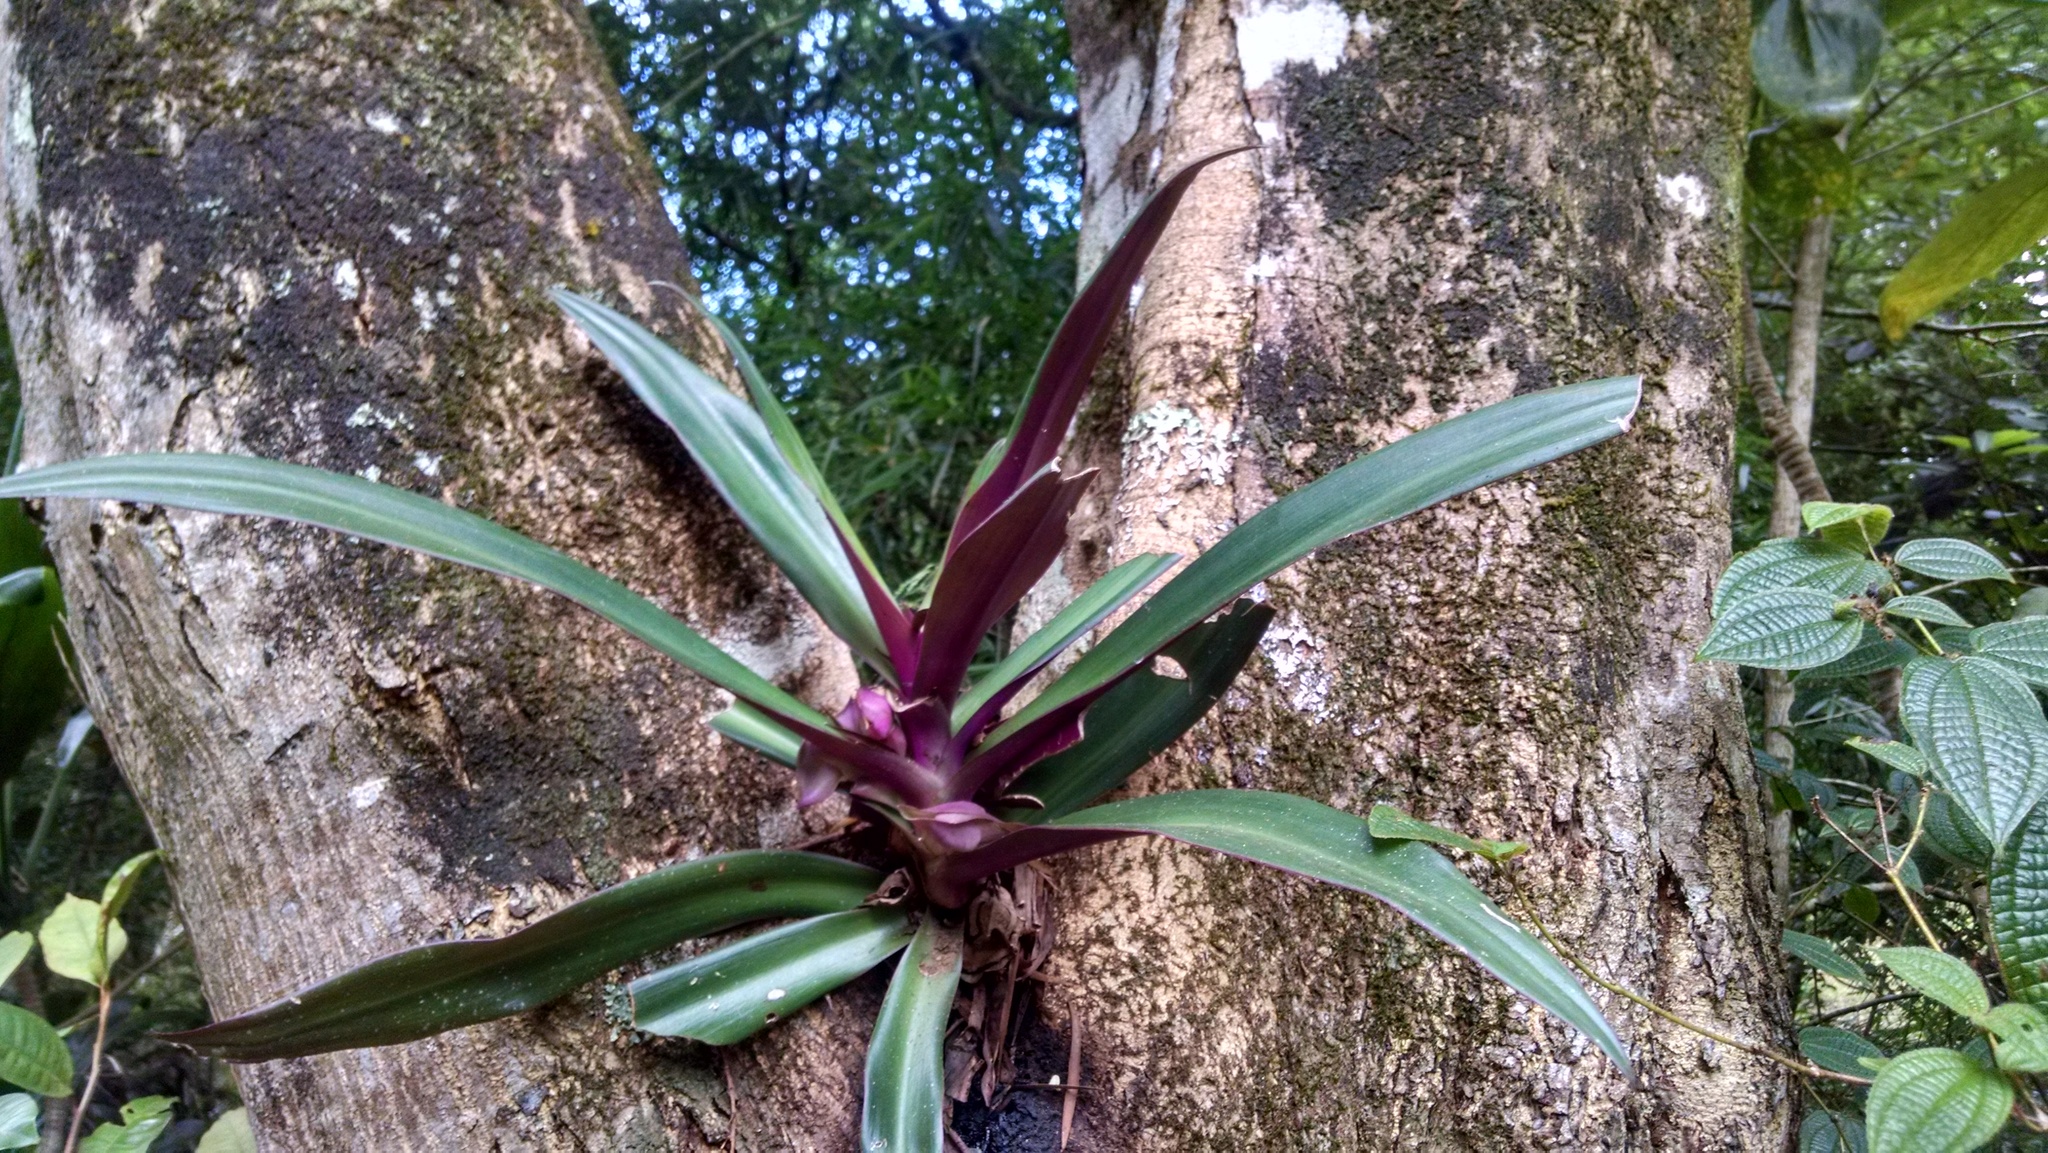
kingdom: Plantae
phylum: Tracheophyta
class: Liliopsida
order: Commelinales
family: Commelinaceae
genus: Tradescantia
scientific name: Tradescantia spathacea
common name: Boatlily
